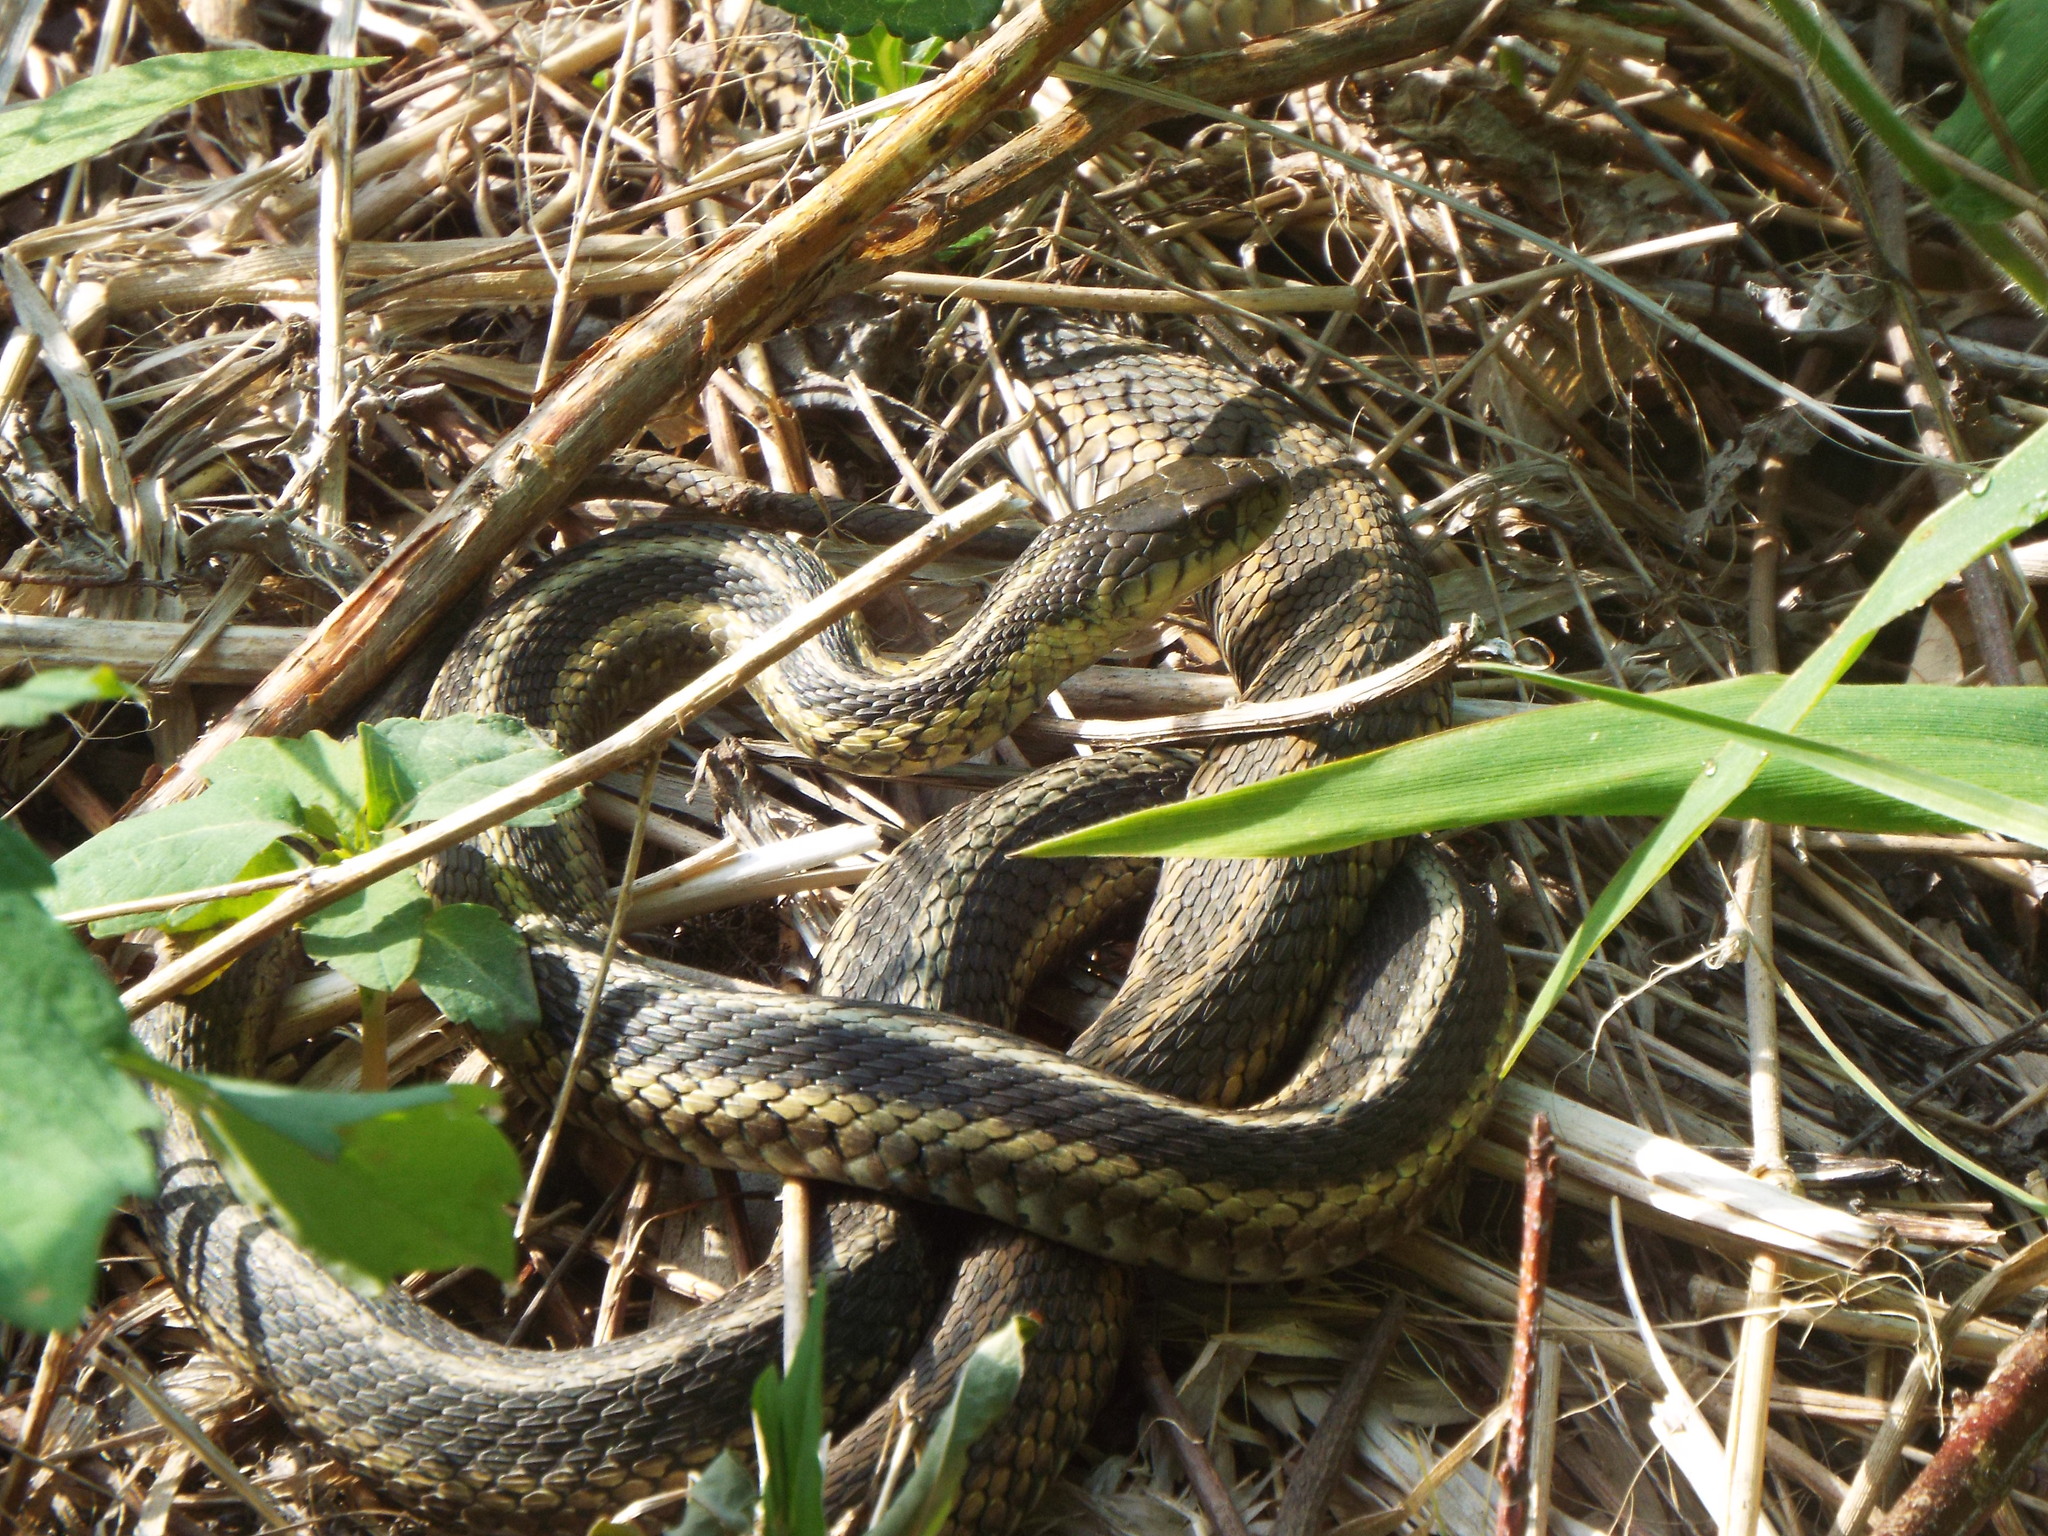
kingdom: Animalia
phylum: Chordata
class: Squamata
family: Colubridae
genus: Thamnophis
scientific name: Thamnophis sirtalis
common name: Common garter snake
